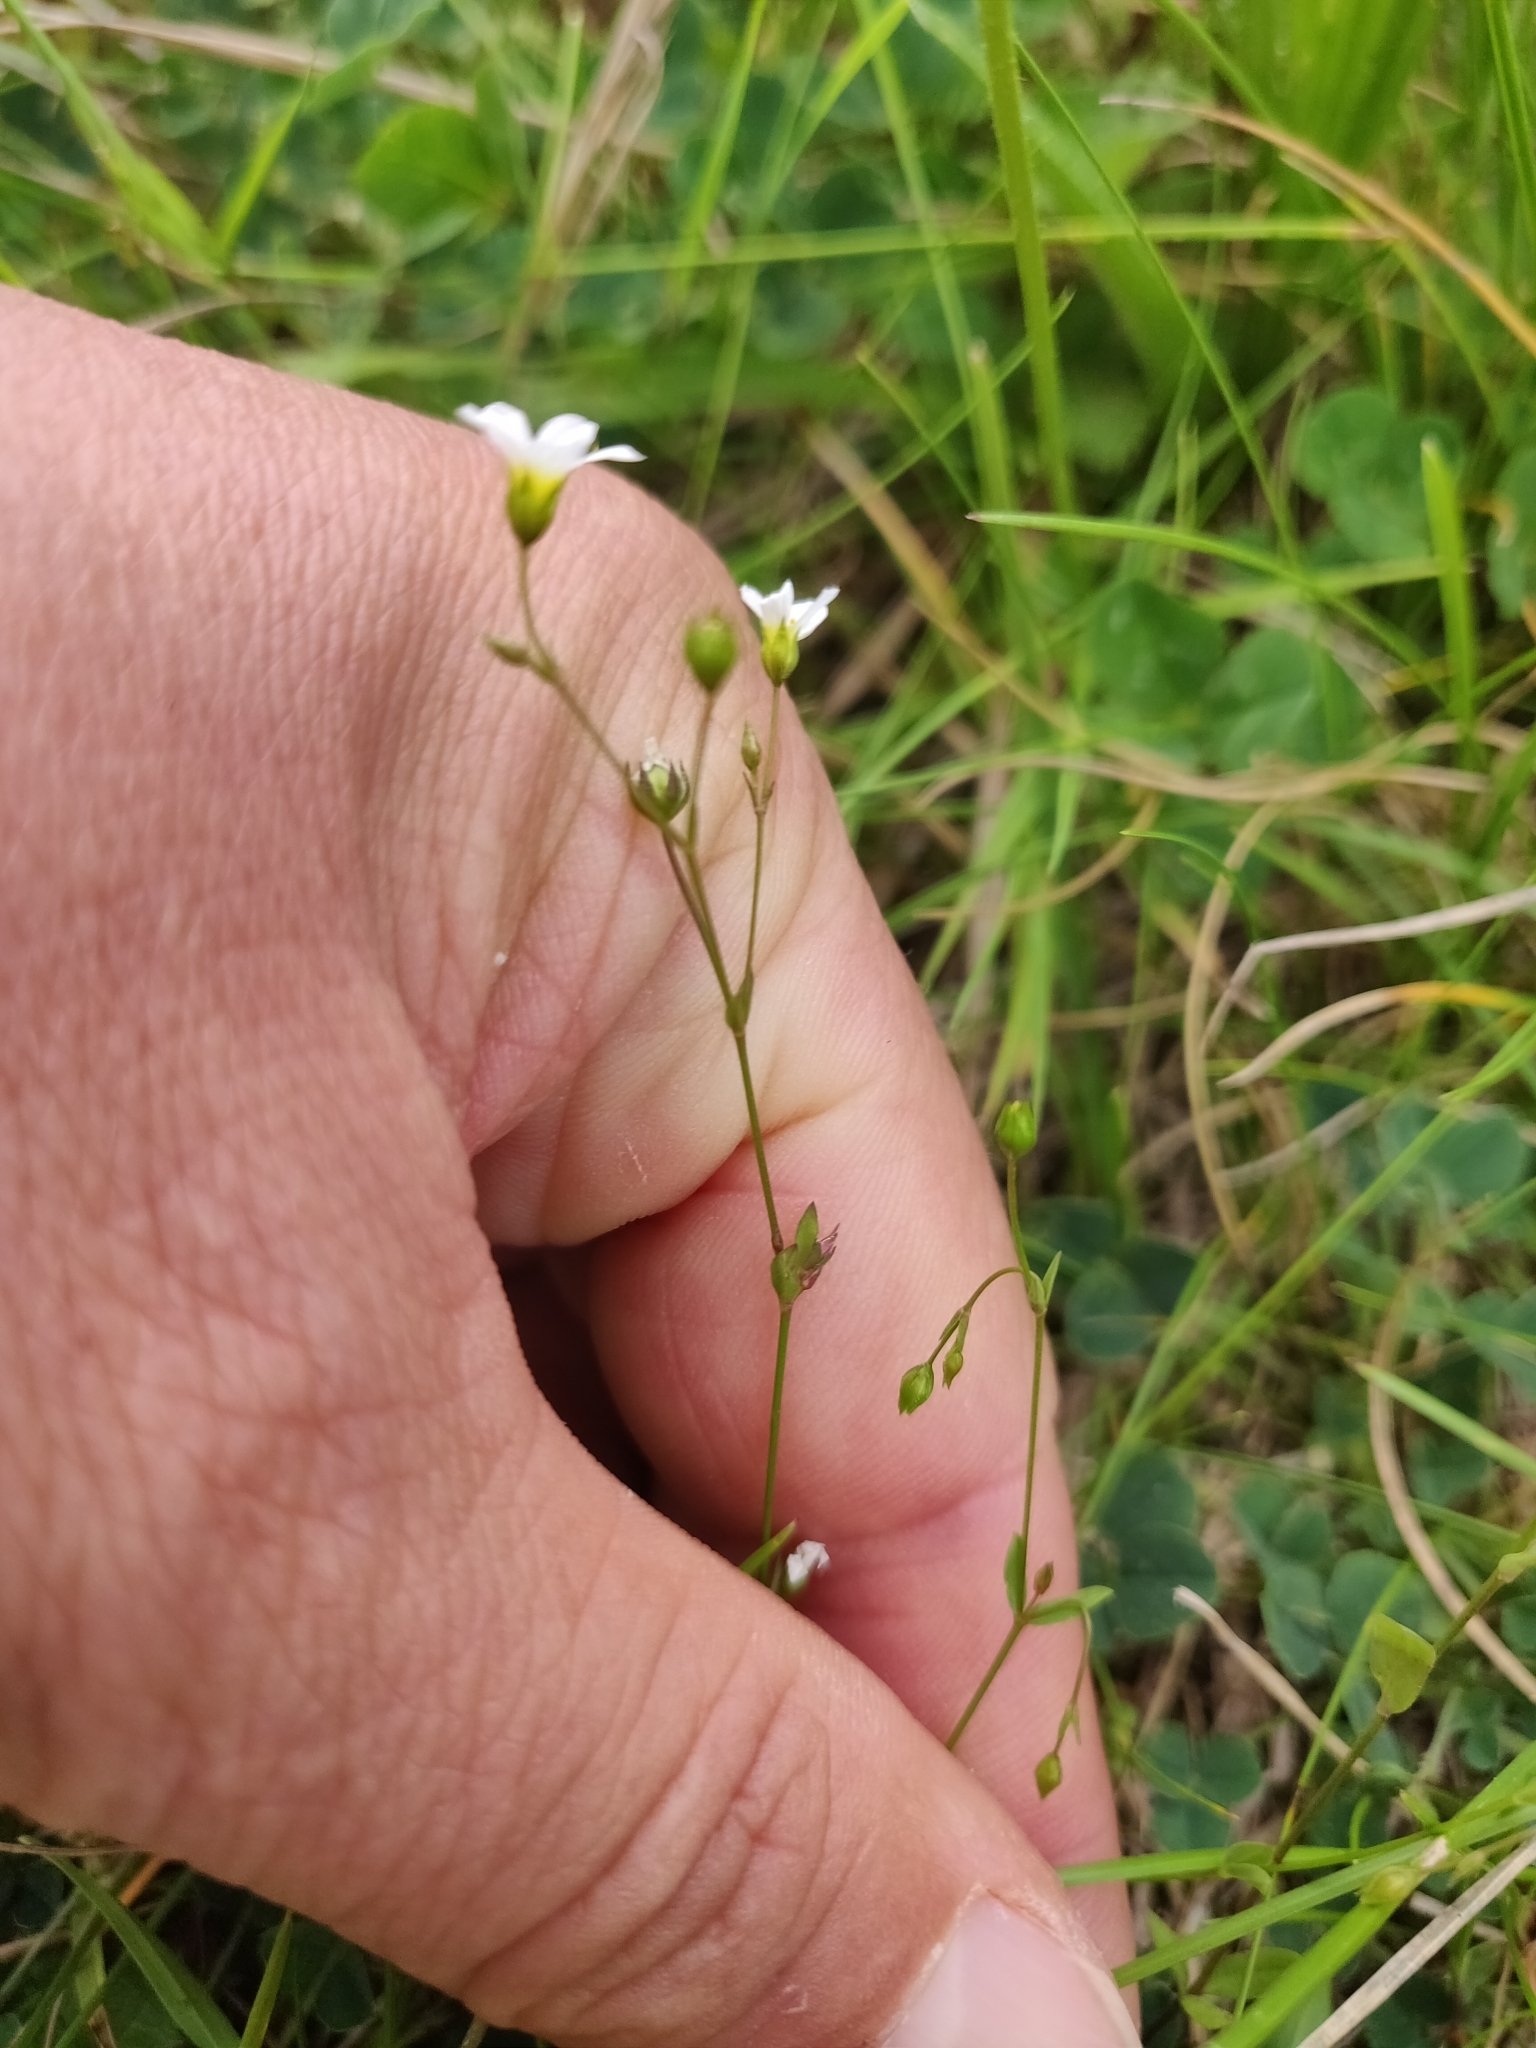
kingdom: Plantae
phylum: Tracheophyta
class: Magnoliopsida
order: Malpighiales
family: Linaceae
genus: Linum
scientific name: Linum catharticum
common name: Fairy flax
